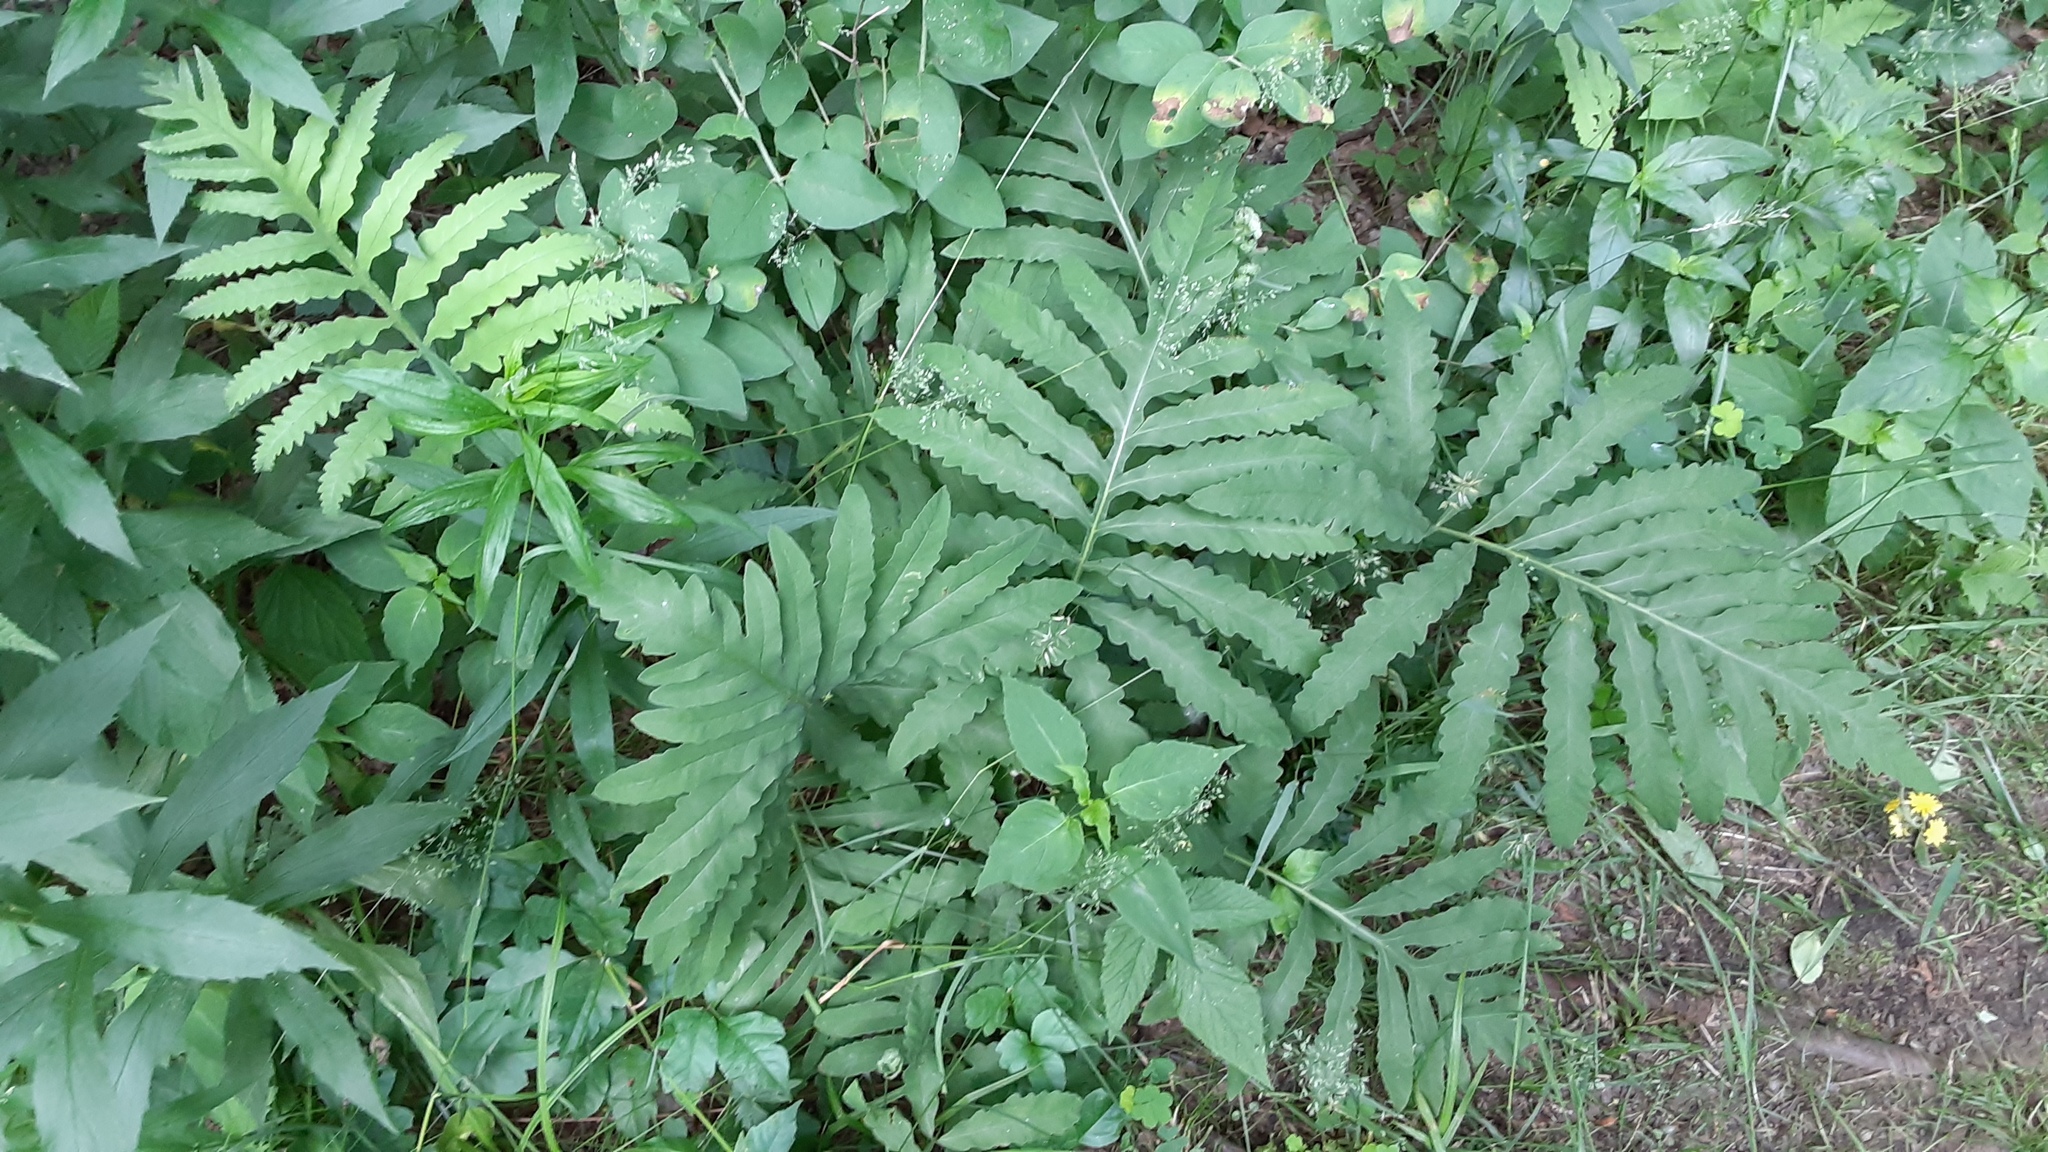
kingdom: Plantae
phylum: Tracheophyta
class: Polypodiopsida
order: Polypodiales
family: Onocleaceae
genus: Onoclea
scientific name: Onoclea sensibilis
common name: Sensitive fern
